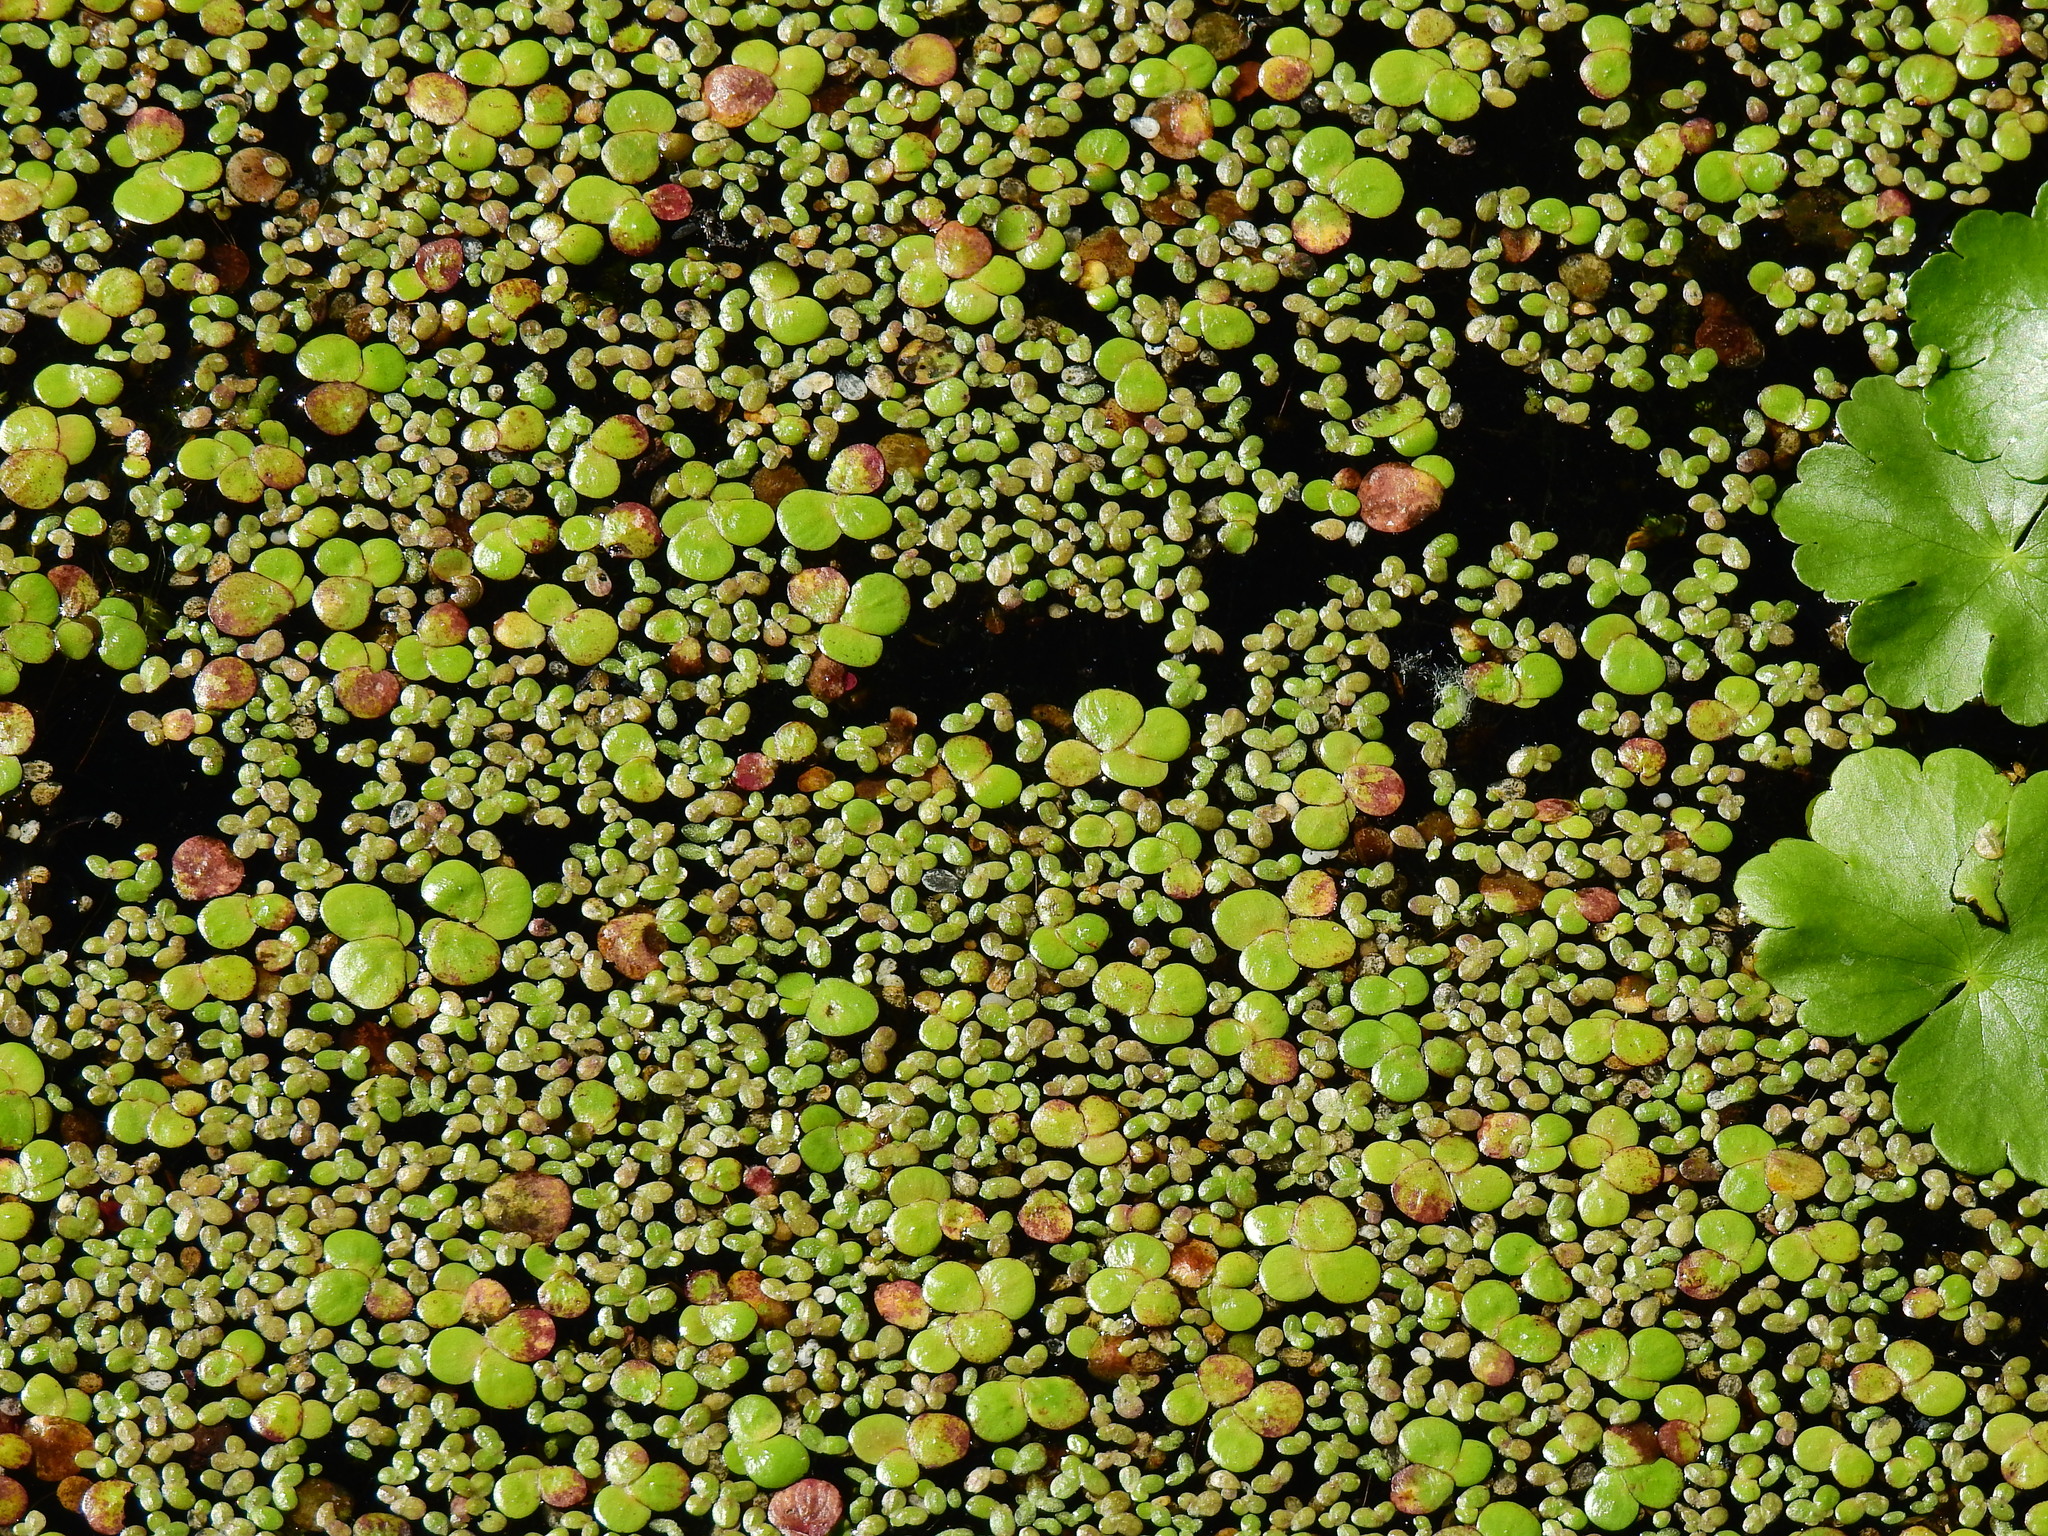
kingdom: Plantae
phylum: Tracheophyta
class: Liliopsida
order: Alismatales
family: Araceae
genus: Lemna
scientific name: Lemna minor
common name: Common duckweed
